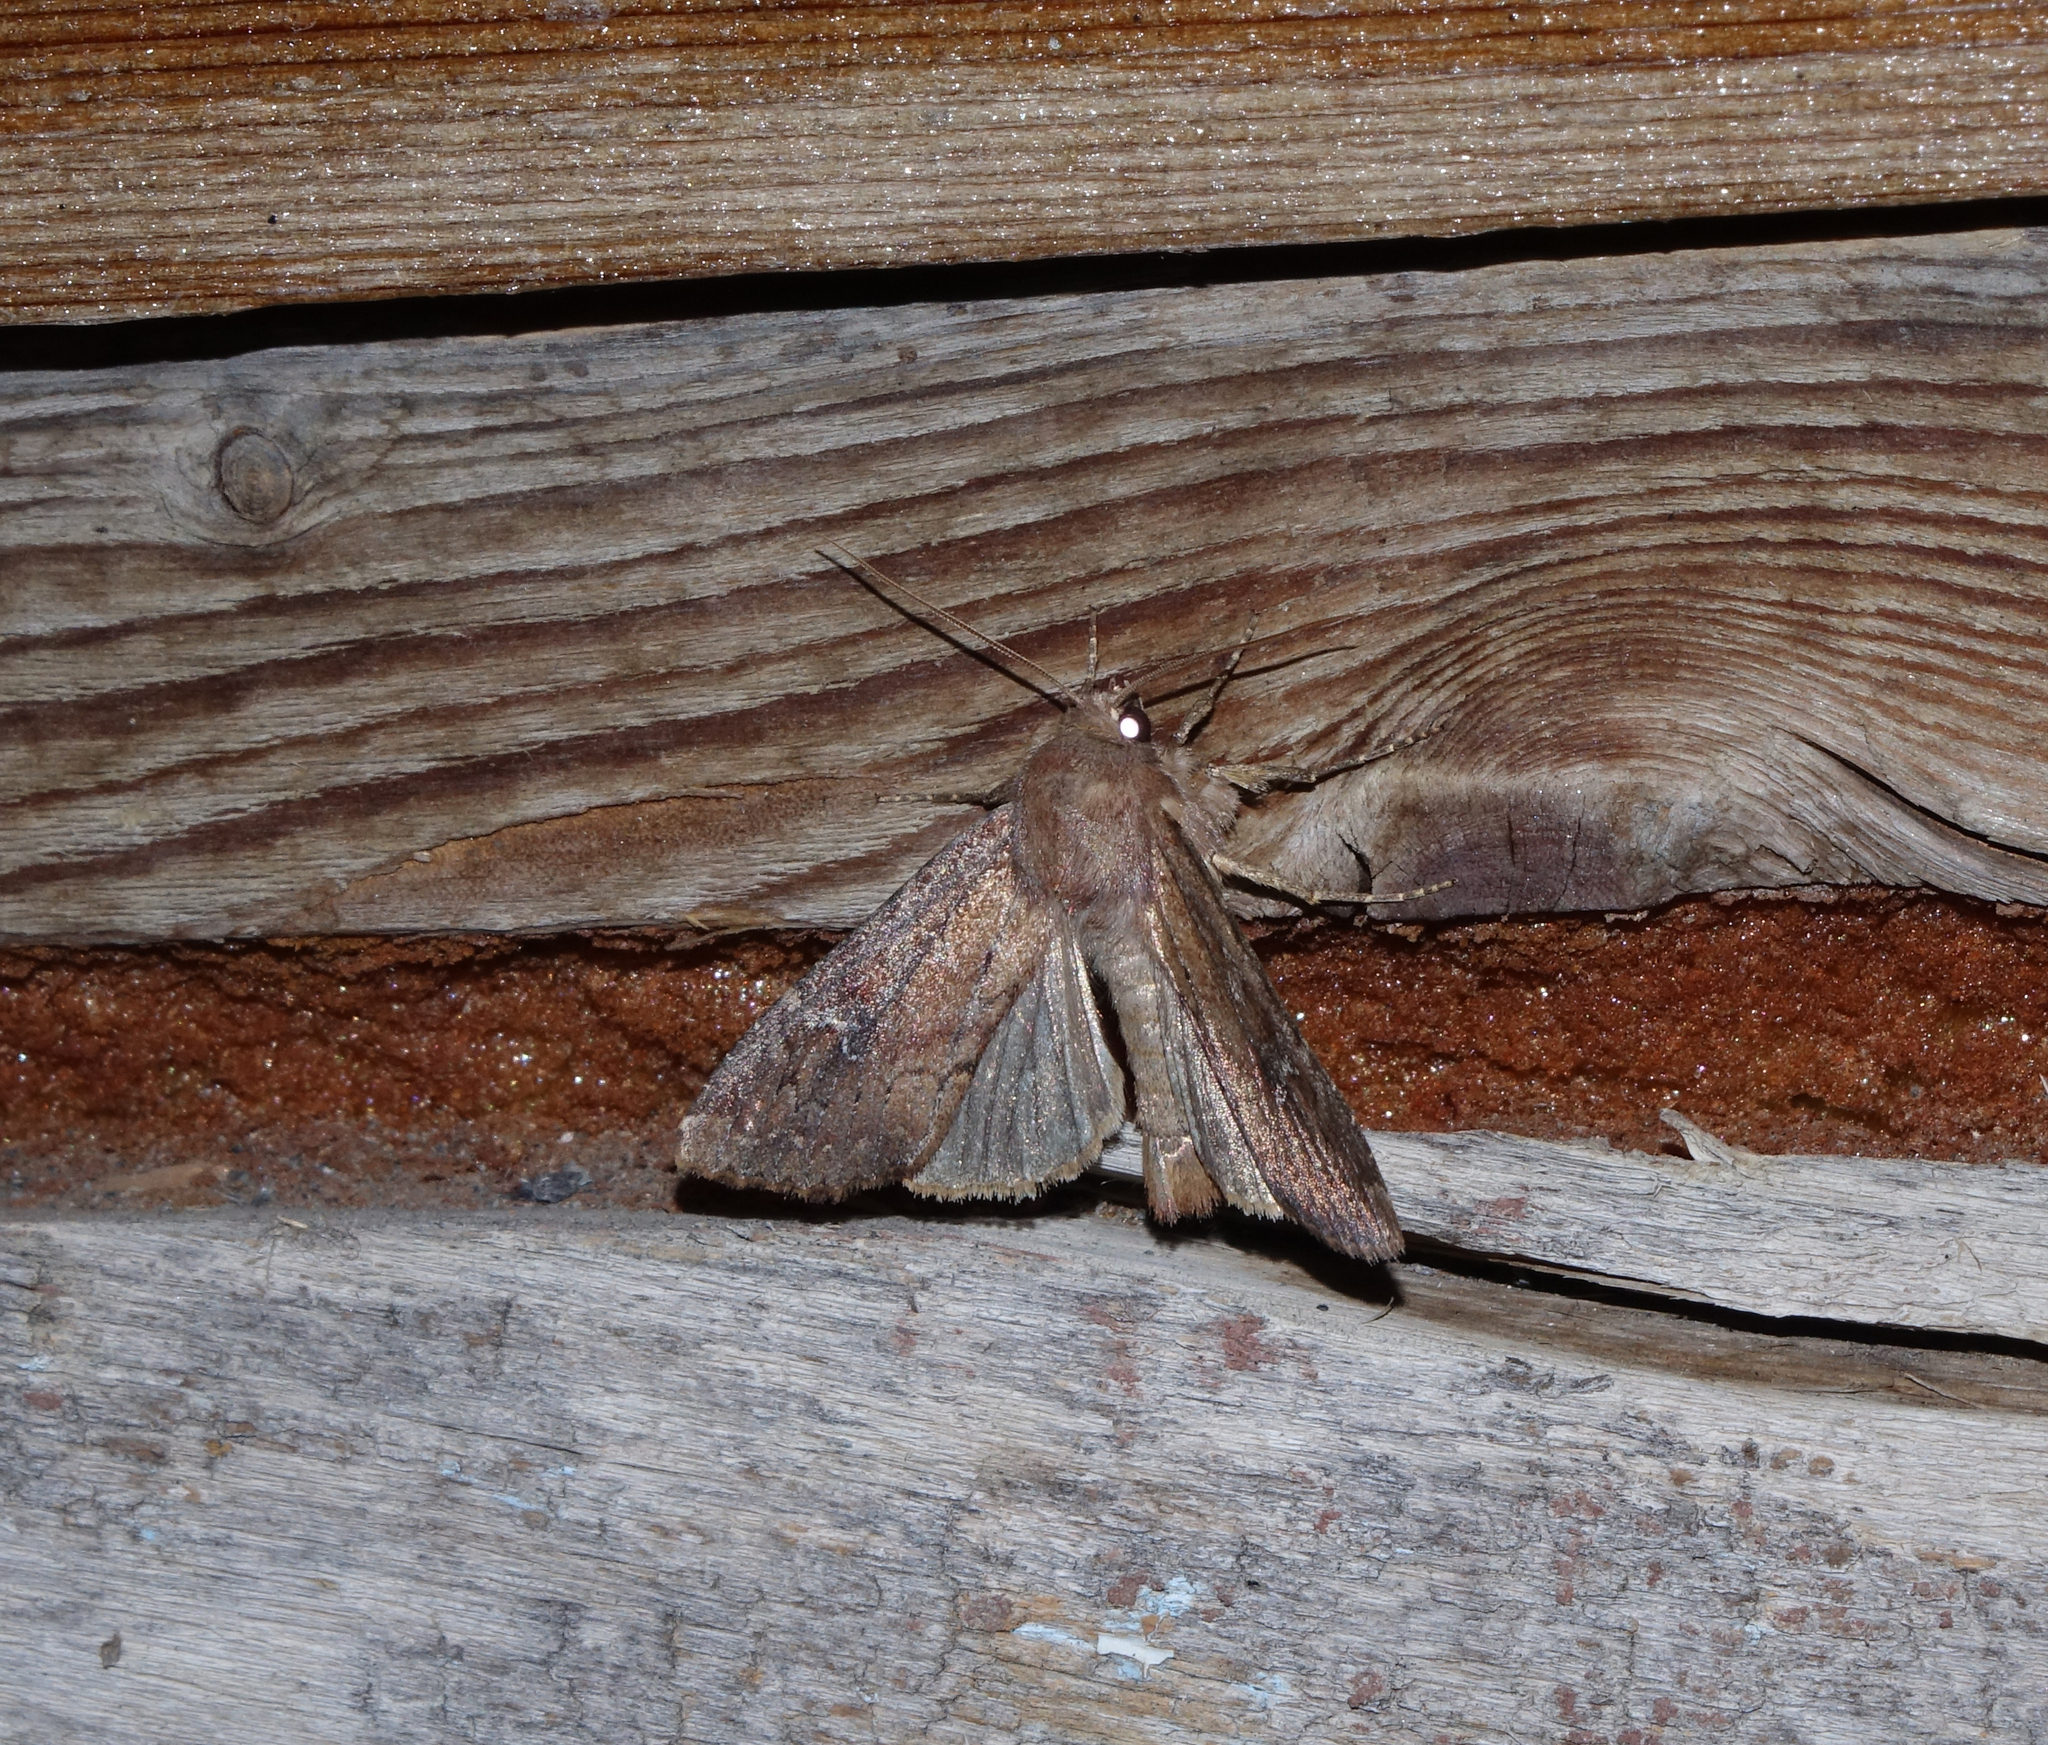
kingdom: Animalia
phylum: Arthropoda
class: Insecta
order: Lepidoptera
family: Noctuidae
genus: Apamea
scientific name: Apamea lateritia
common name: Scarce brindle
